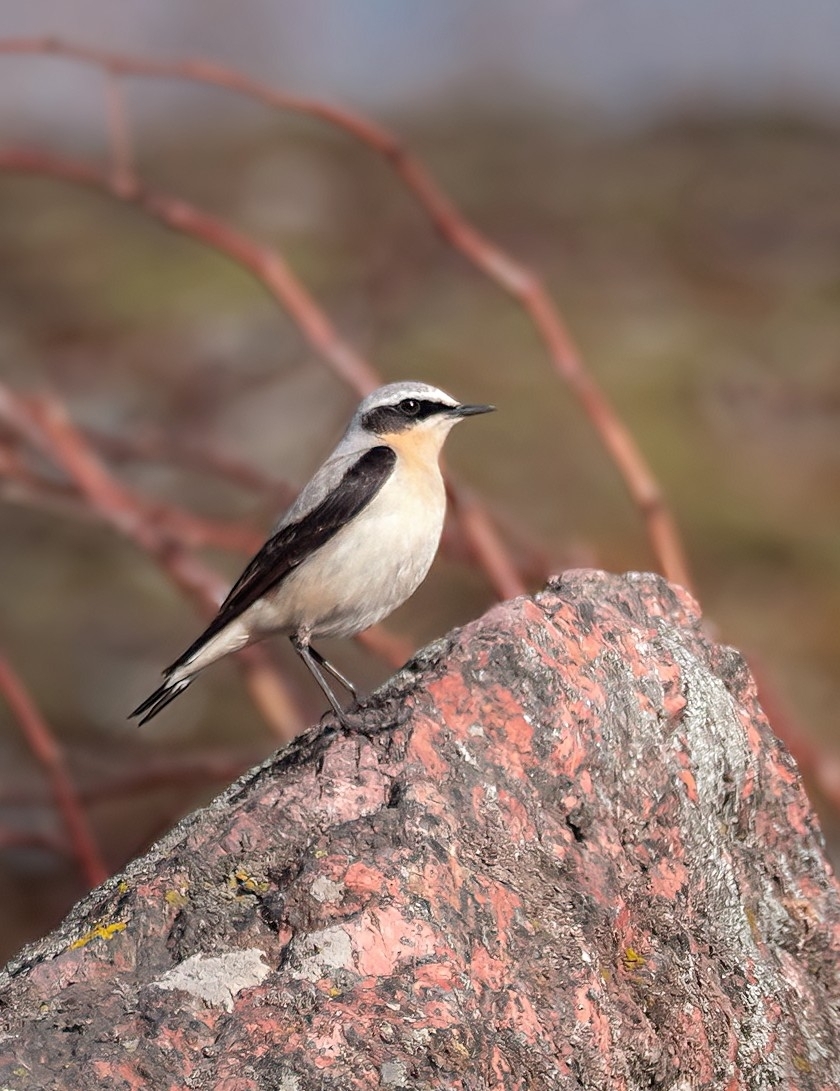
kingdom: Animalia
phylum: Chordata
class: Aves
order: Passeriformes
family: Muscicapidae
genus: Oenanthe
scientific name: Oenanthe oenanthe
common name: Northern wheatear
